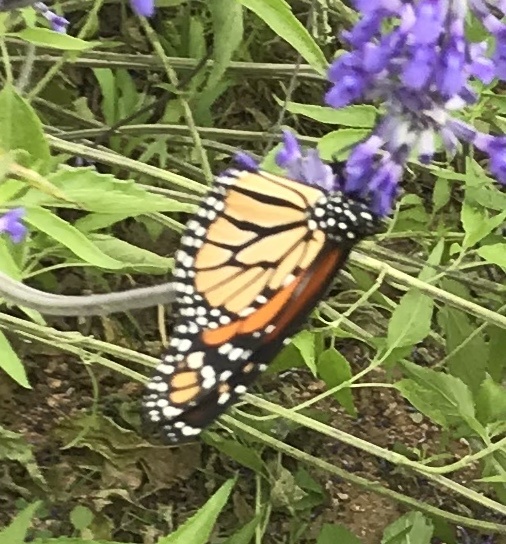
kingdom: Animalia
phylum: Arthropoda
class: Insecta
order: Lepidoptera
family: Nymphalidae
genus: Danaus
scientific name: Danaus plexippus
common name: Monarch
